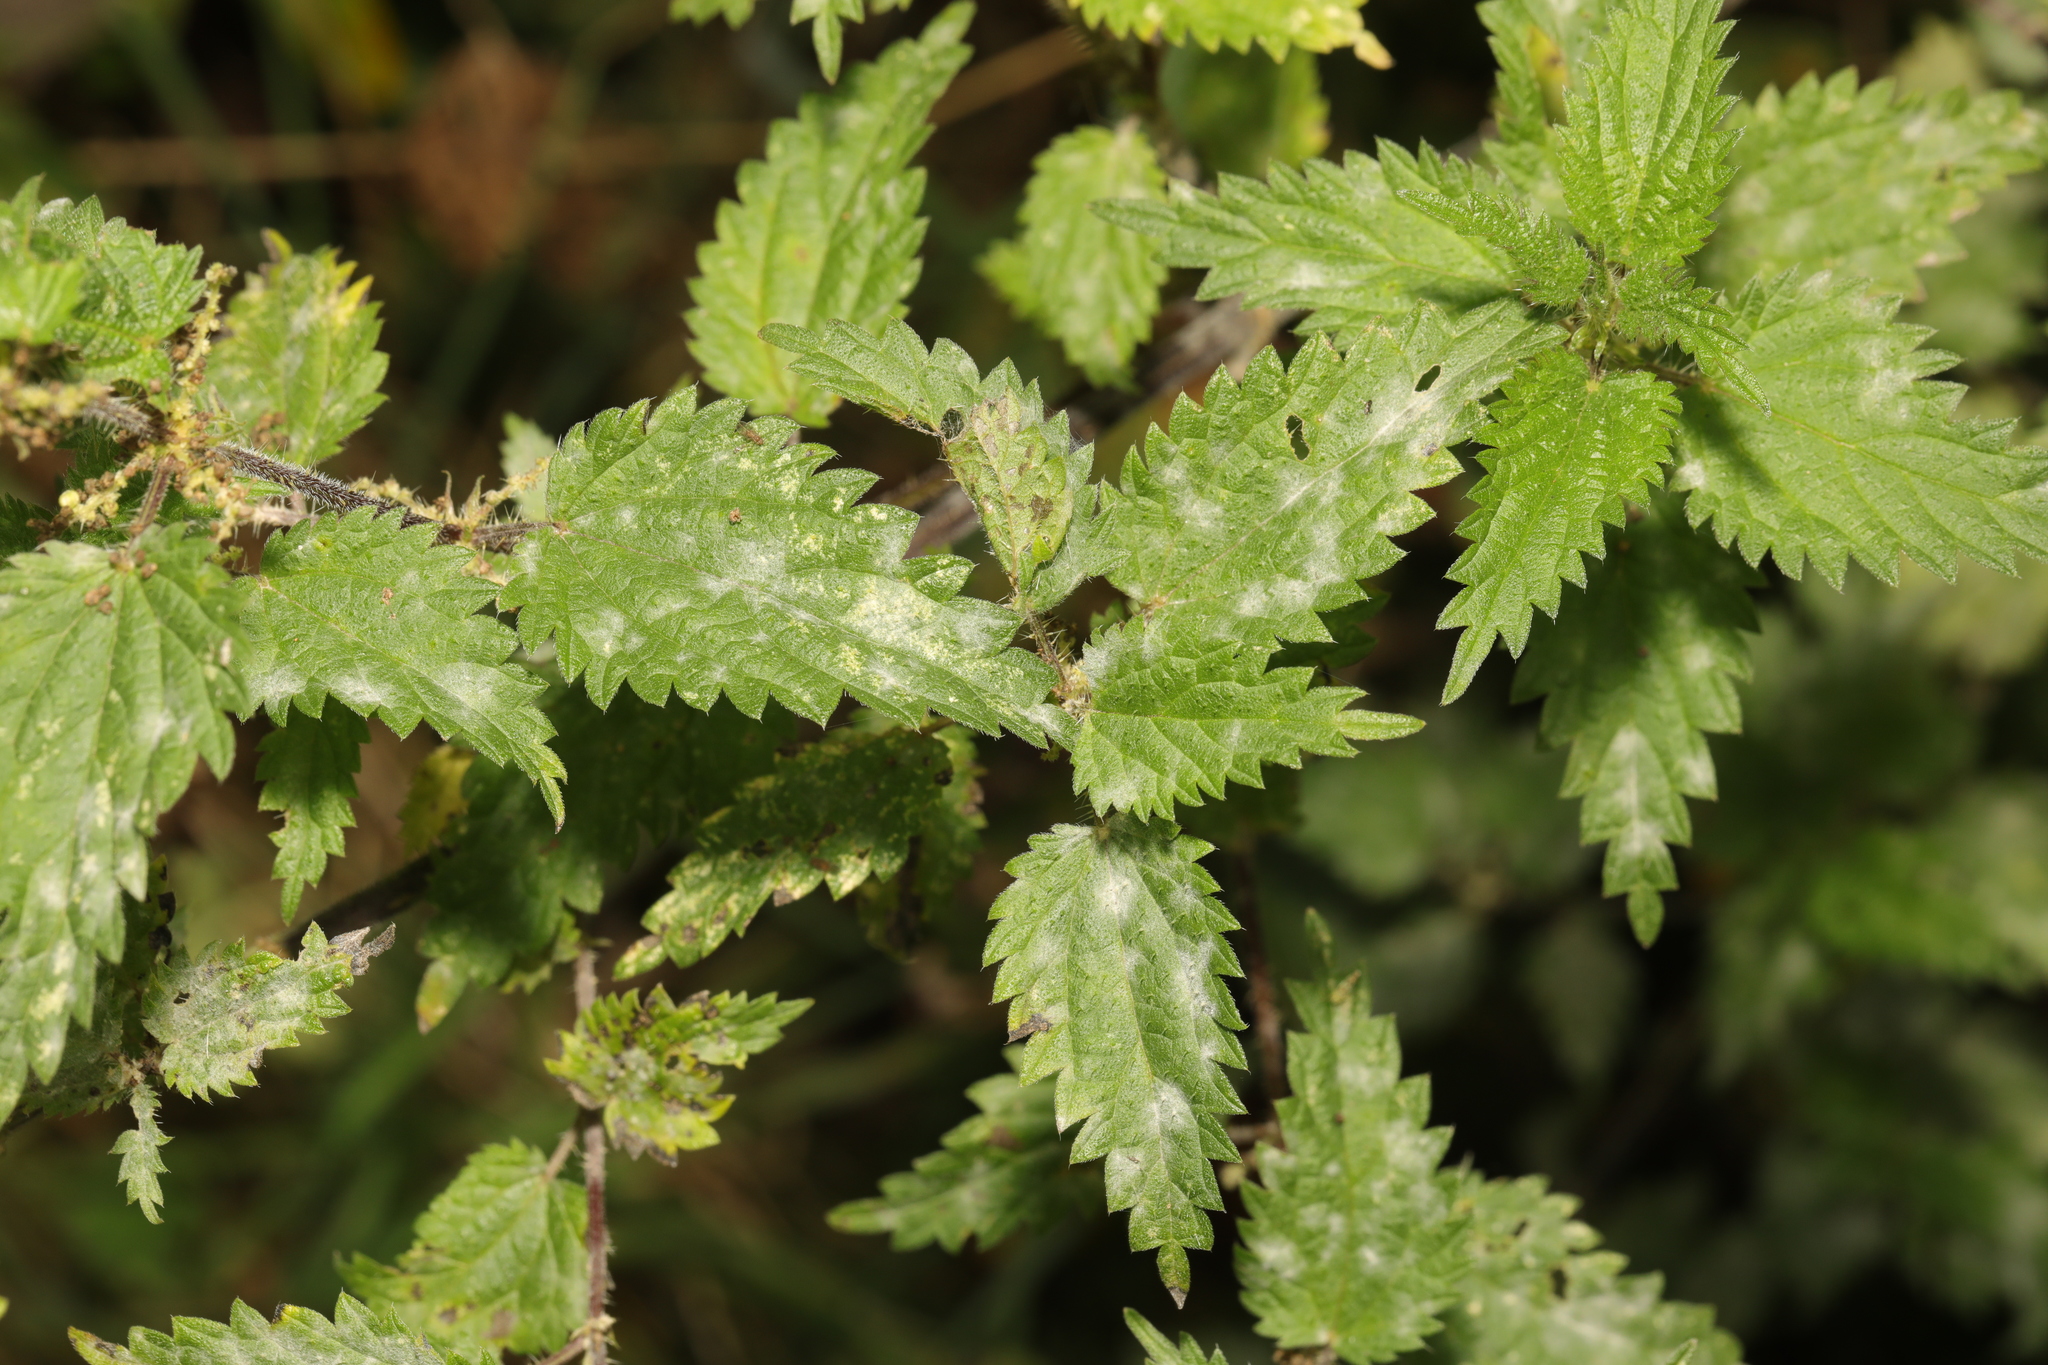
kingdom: Plantae
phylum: Tracheophyta
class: Magnoliopsida
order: Rosales
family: Urticaceae
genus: Urtica
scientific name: Urtica dioica
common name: Common nettle
